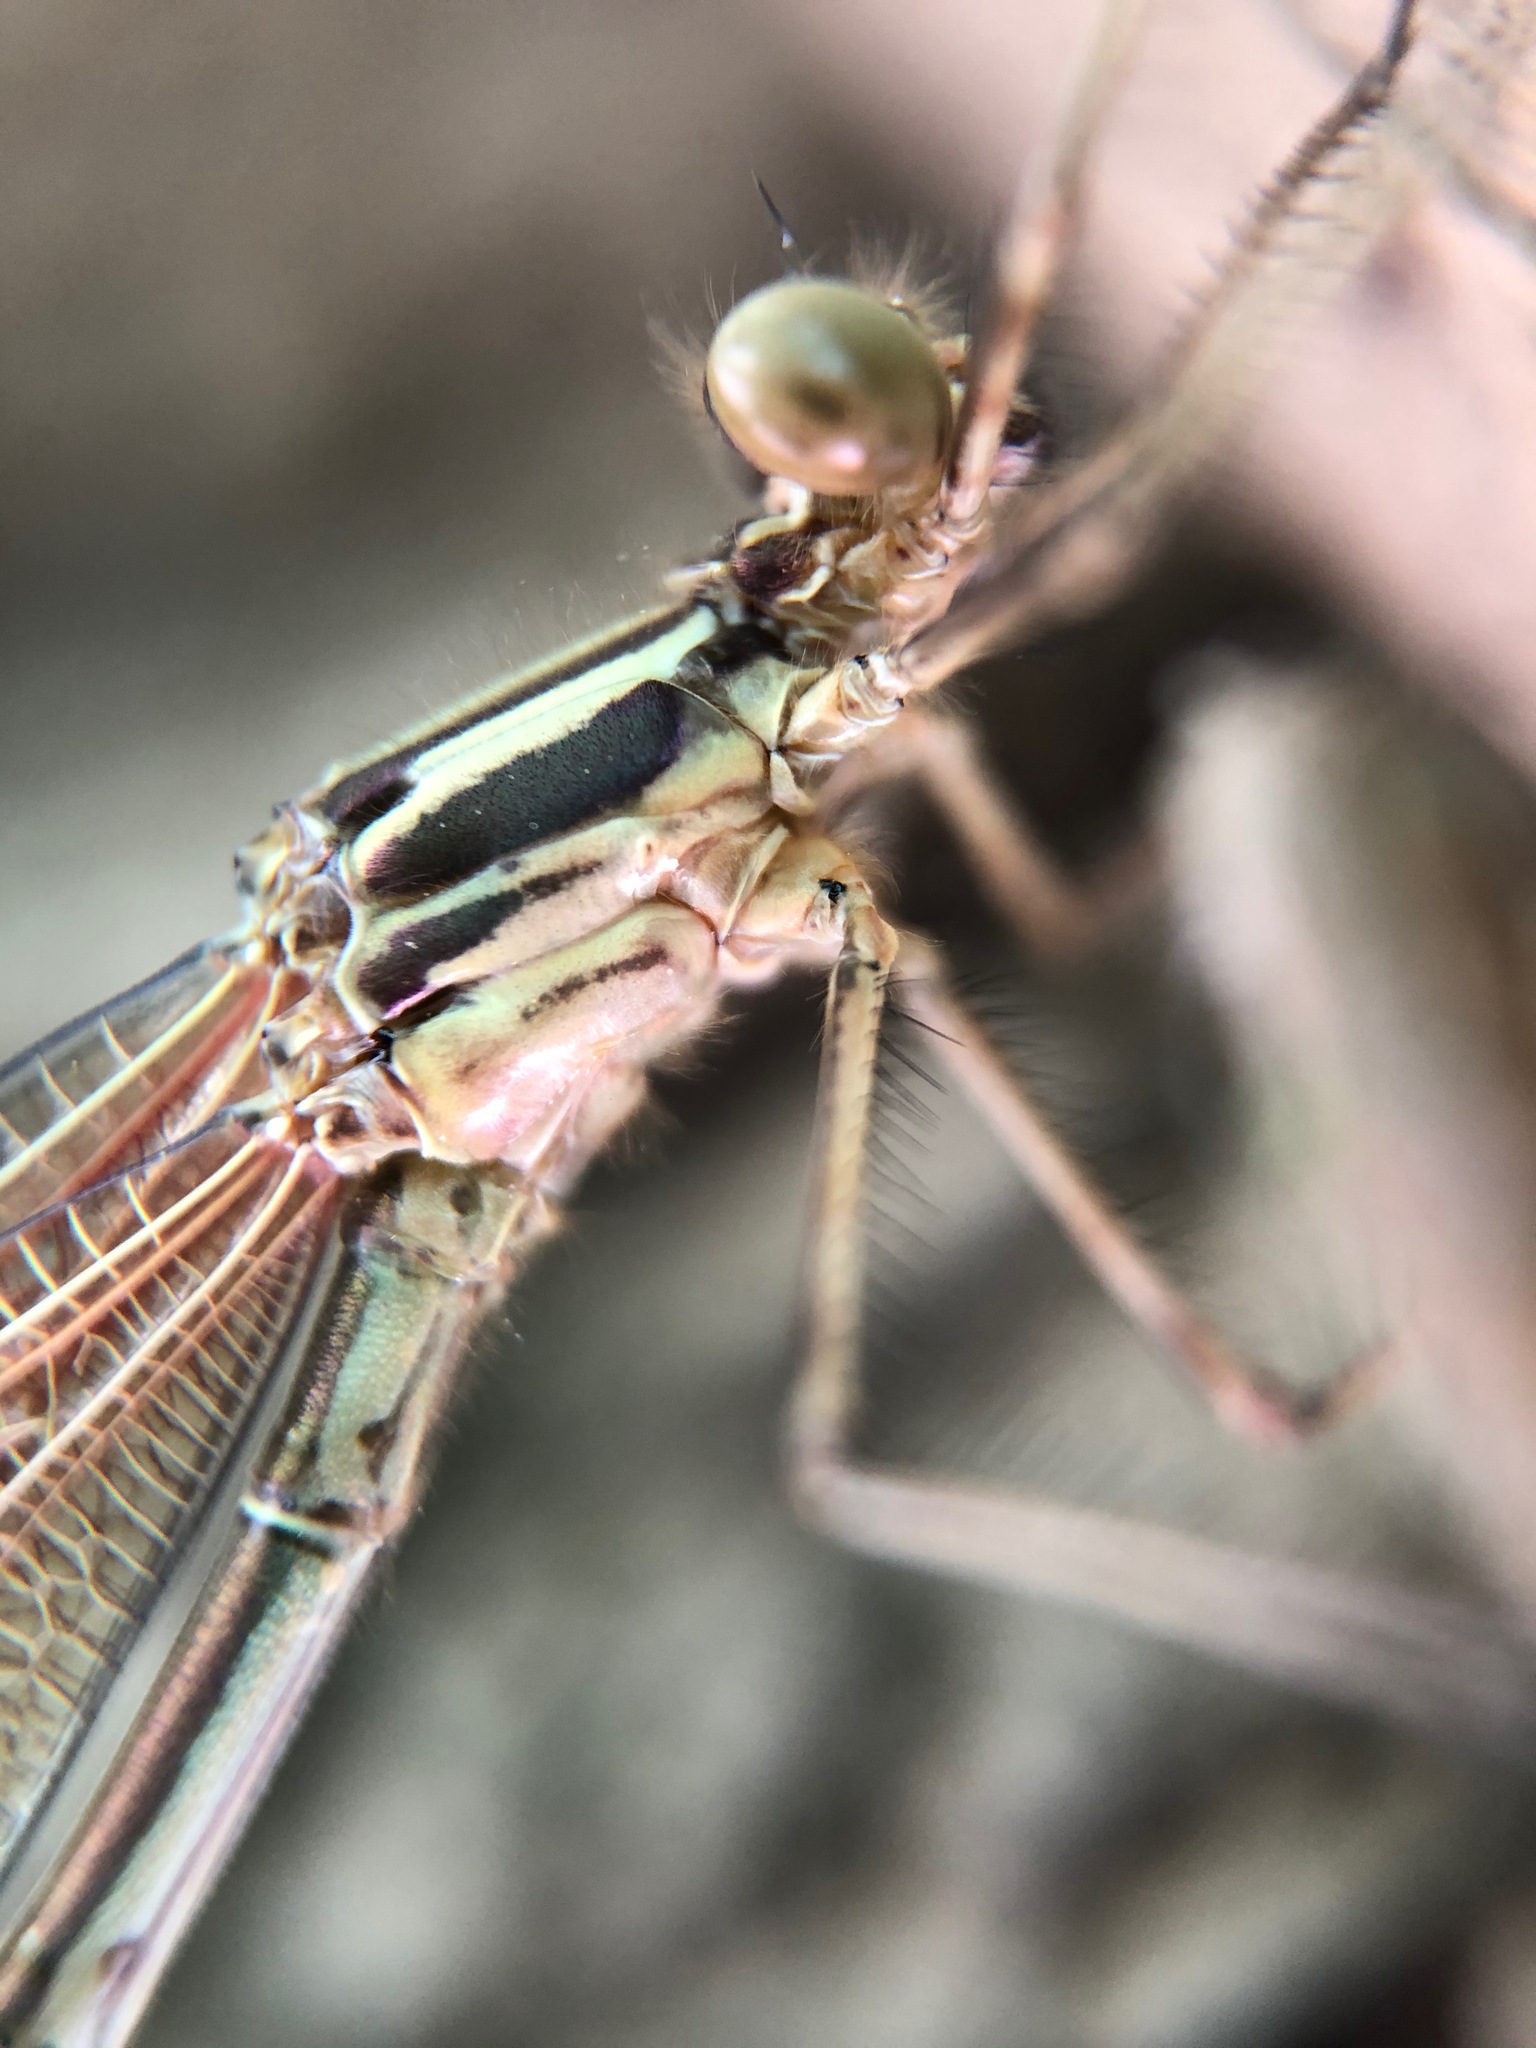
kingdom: Animalia
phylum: Arthropoda
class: Insecta
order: Odonata
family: Calopterygidae
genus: Hetaerina
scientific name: Hetaerina americana
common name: American rubyspot
